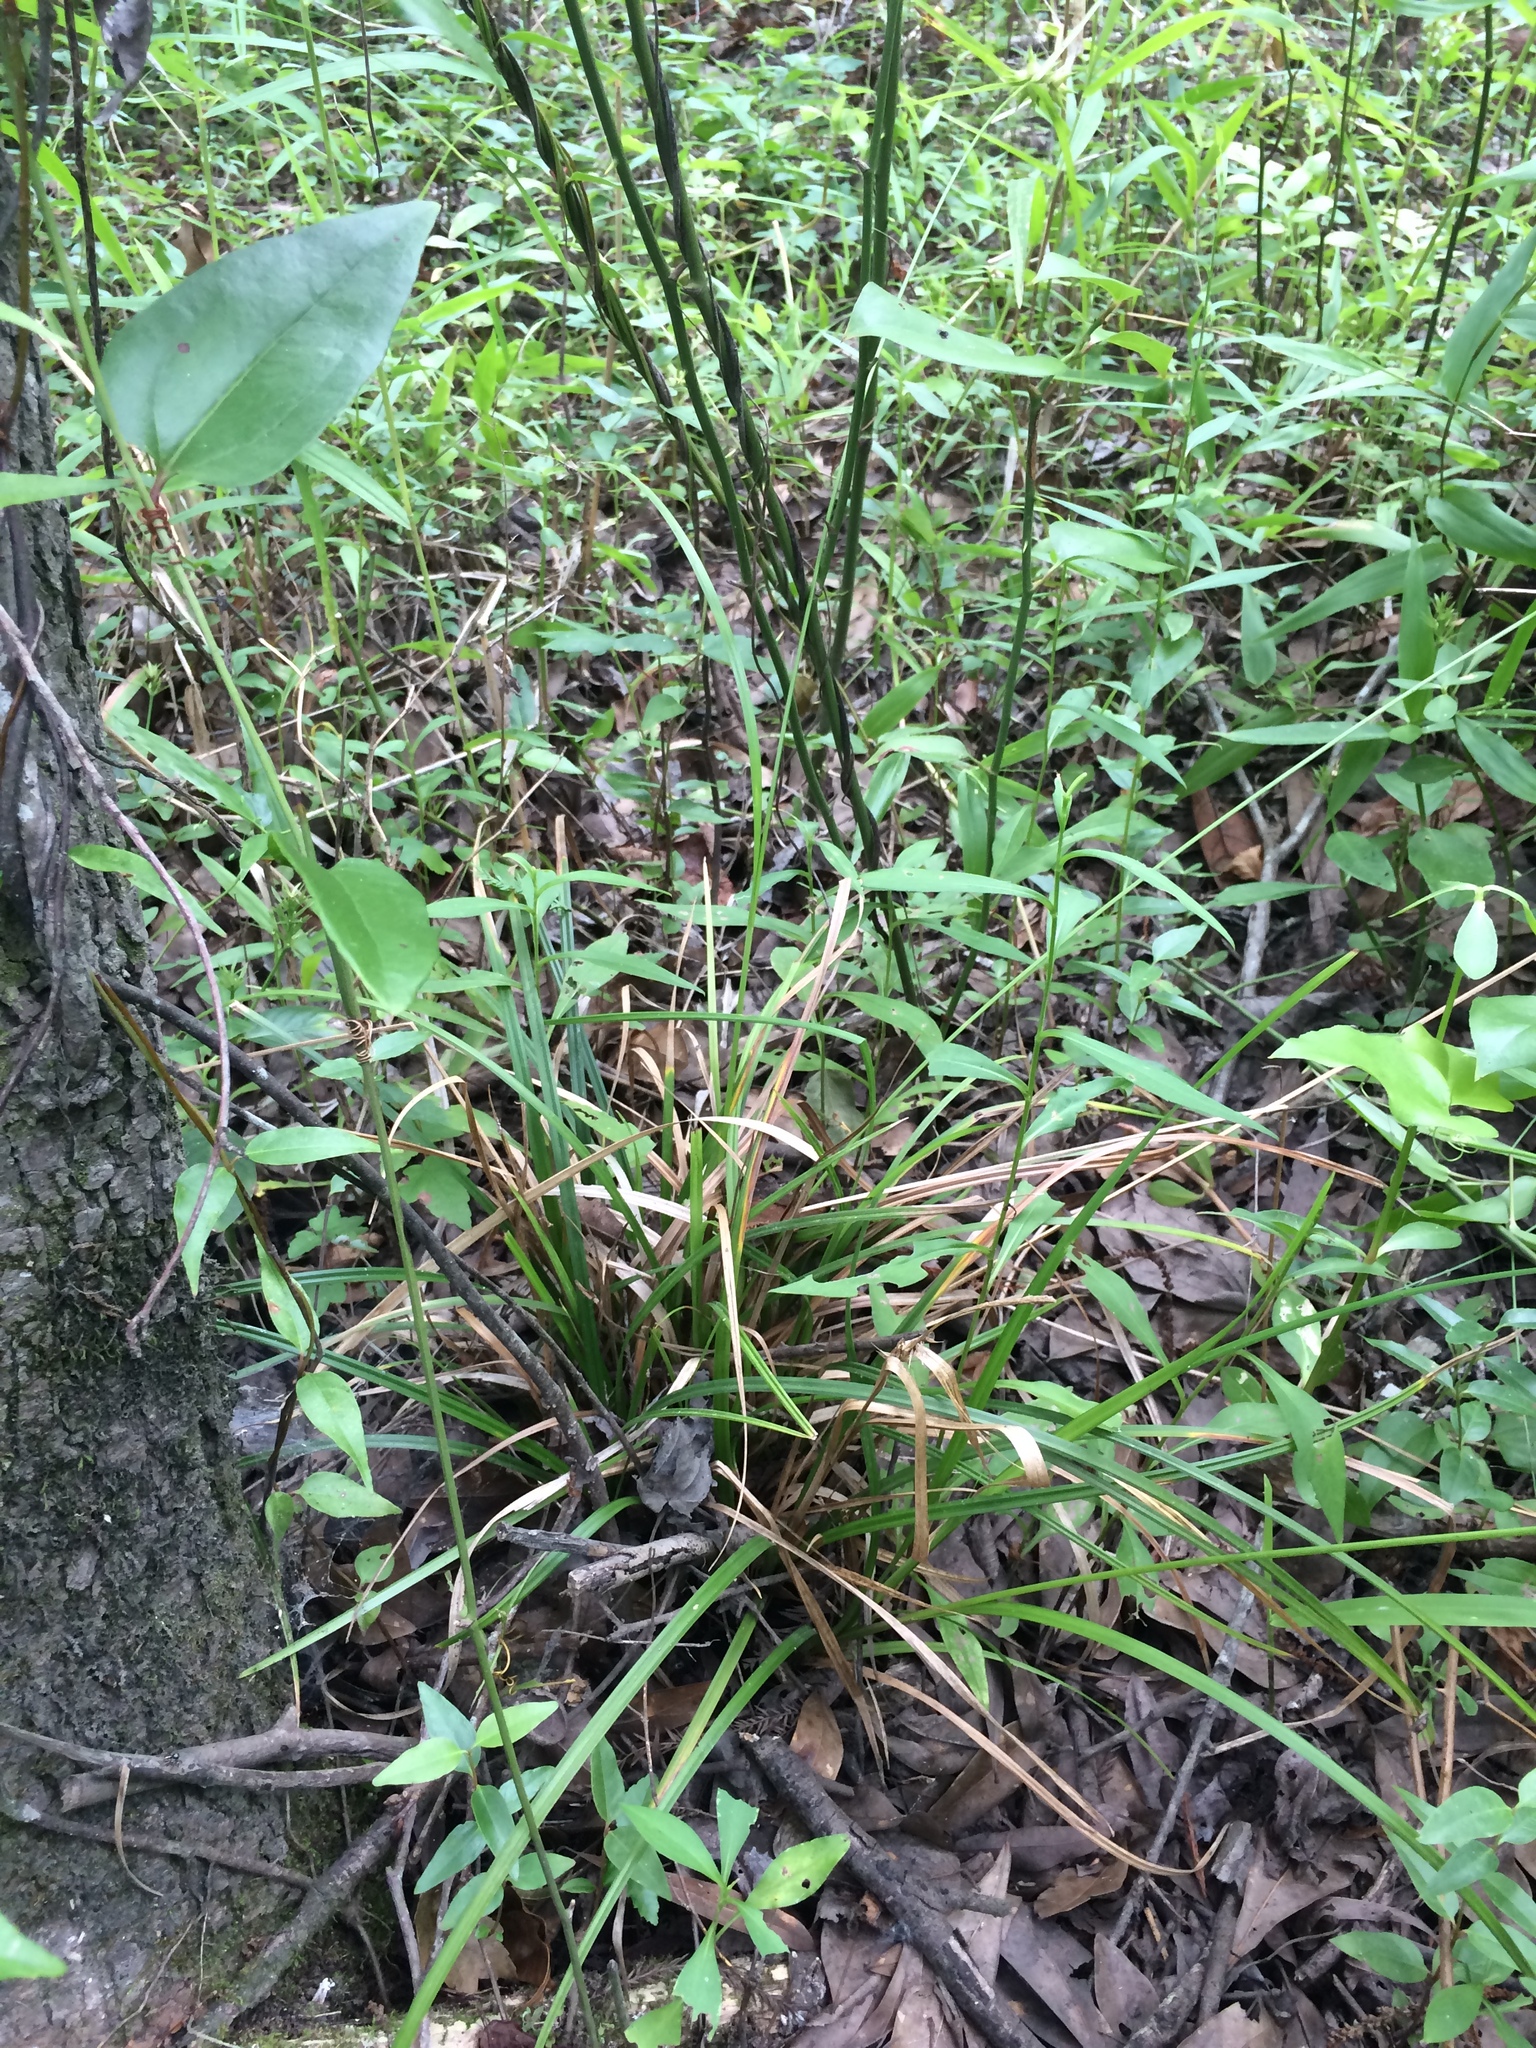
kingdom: Plantae
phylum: Tracheophyta
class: Liliopsida
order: Poales
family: Cyperaceae
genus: Carex
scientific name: Carex intumescens
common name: Greater bladder sedge
